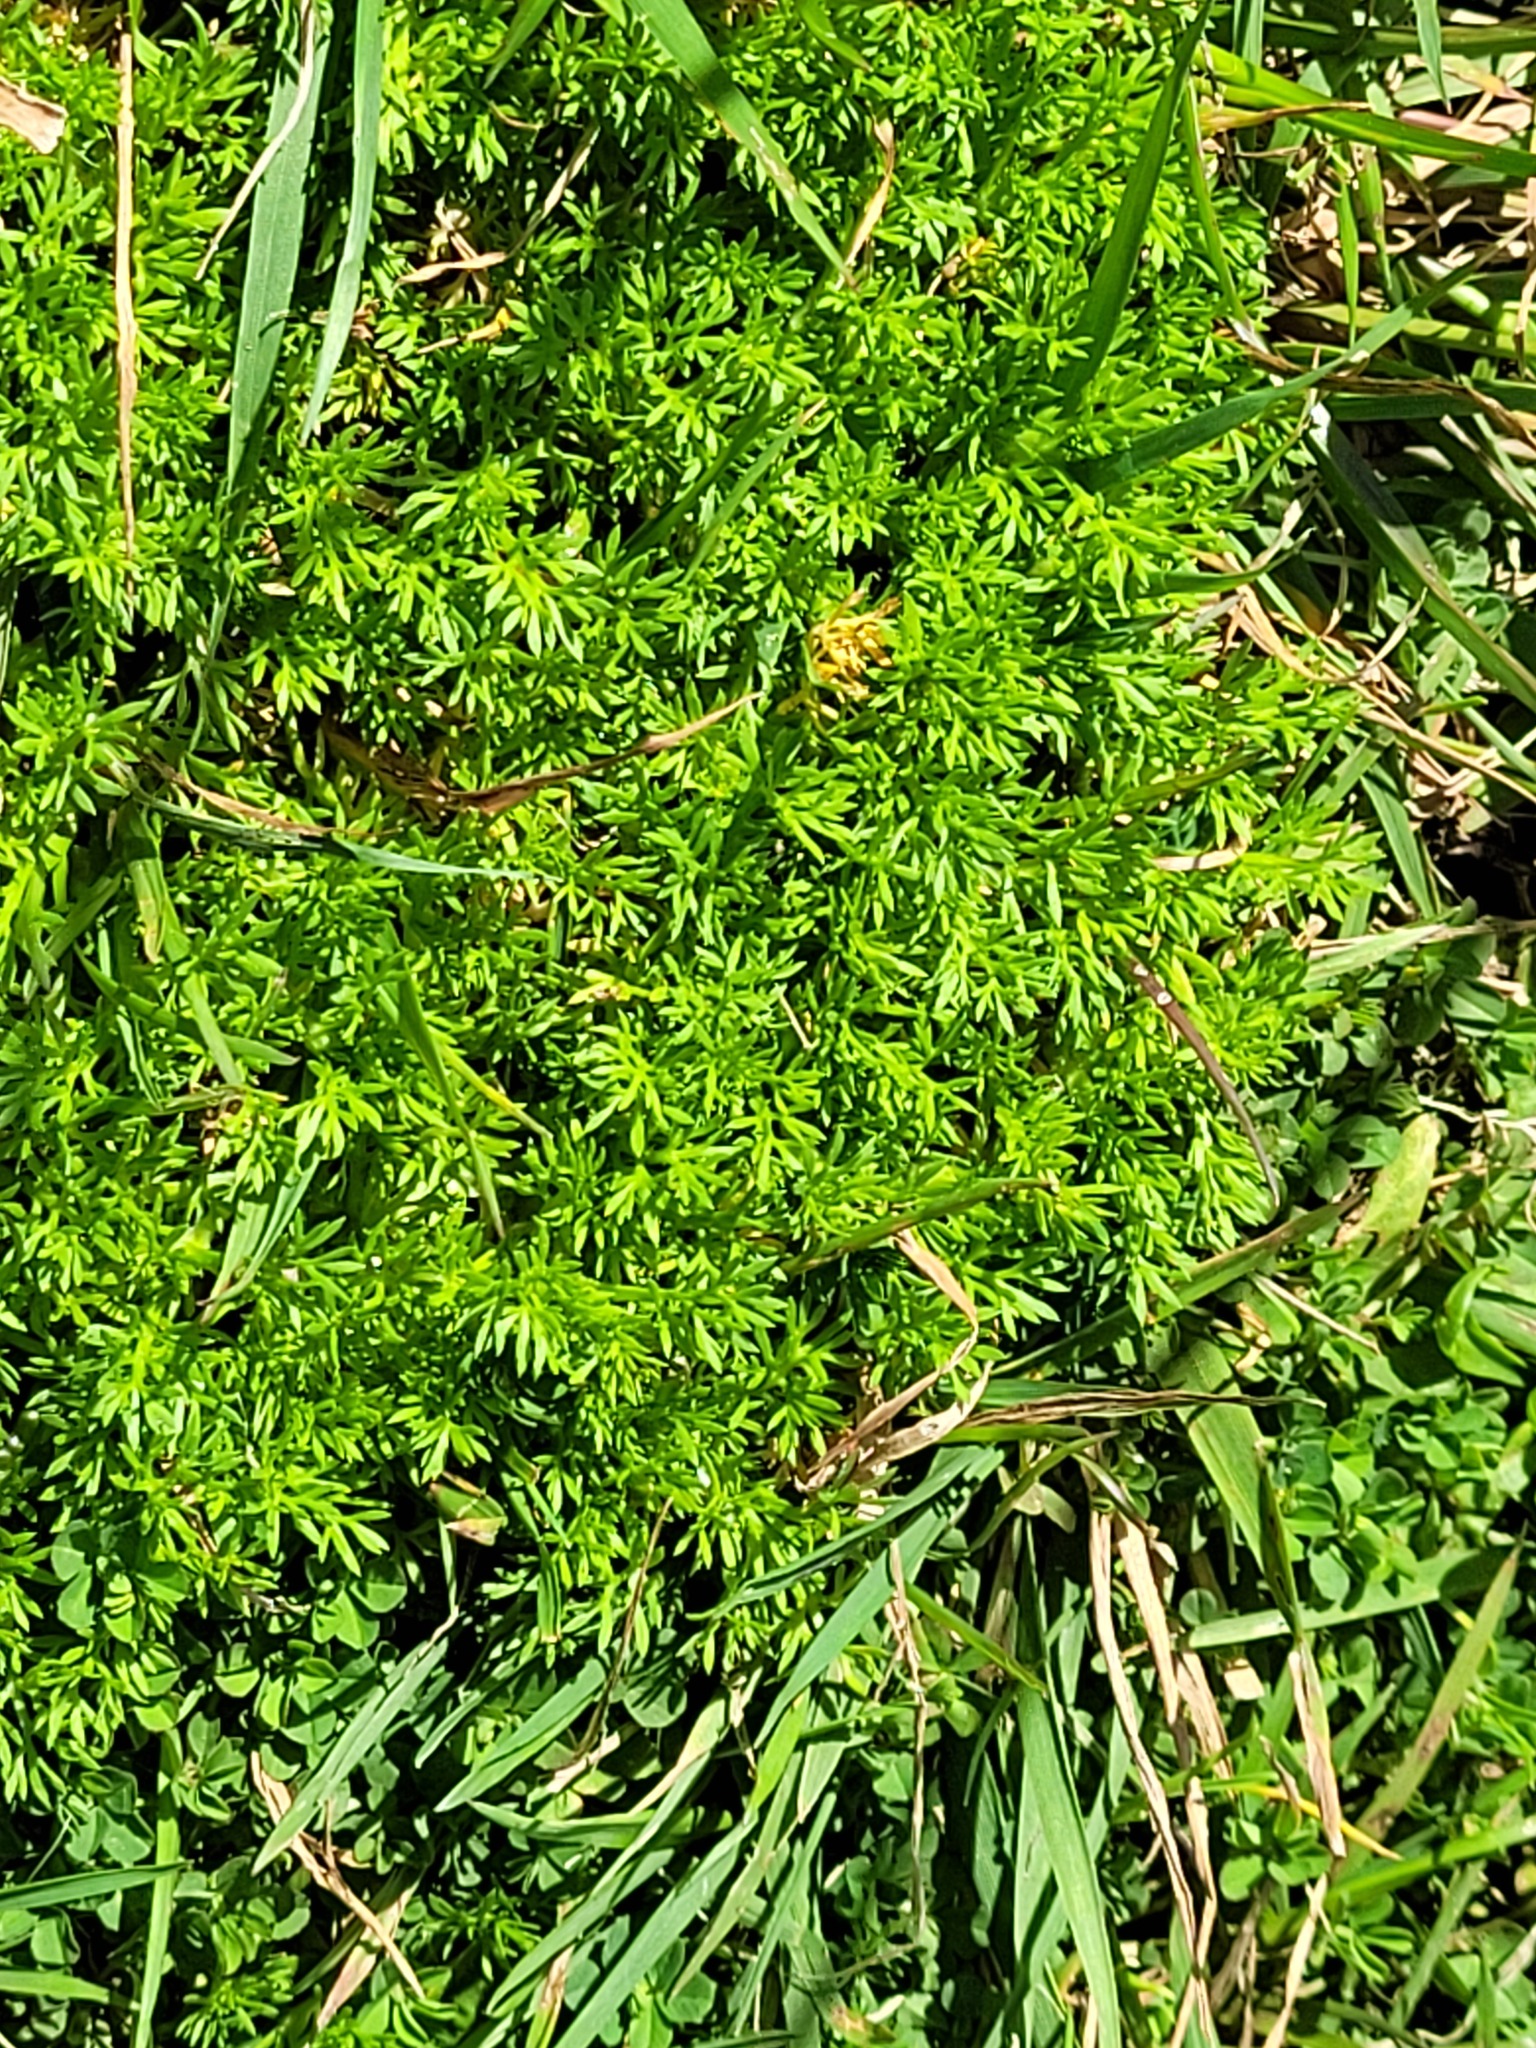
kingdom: Plantae
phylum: Tracheophyta
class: Magnoliopsida
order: Asterales
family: Asteraceae
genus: Soliva
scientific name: Soliva sessilis
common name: Field burrweed
